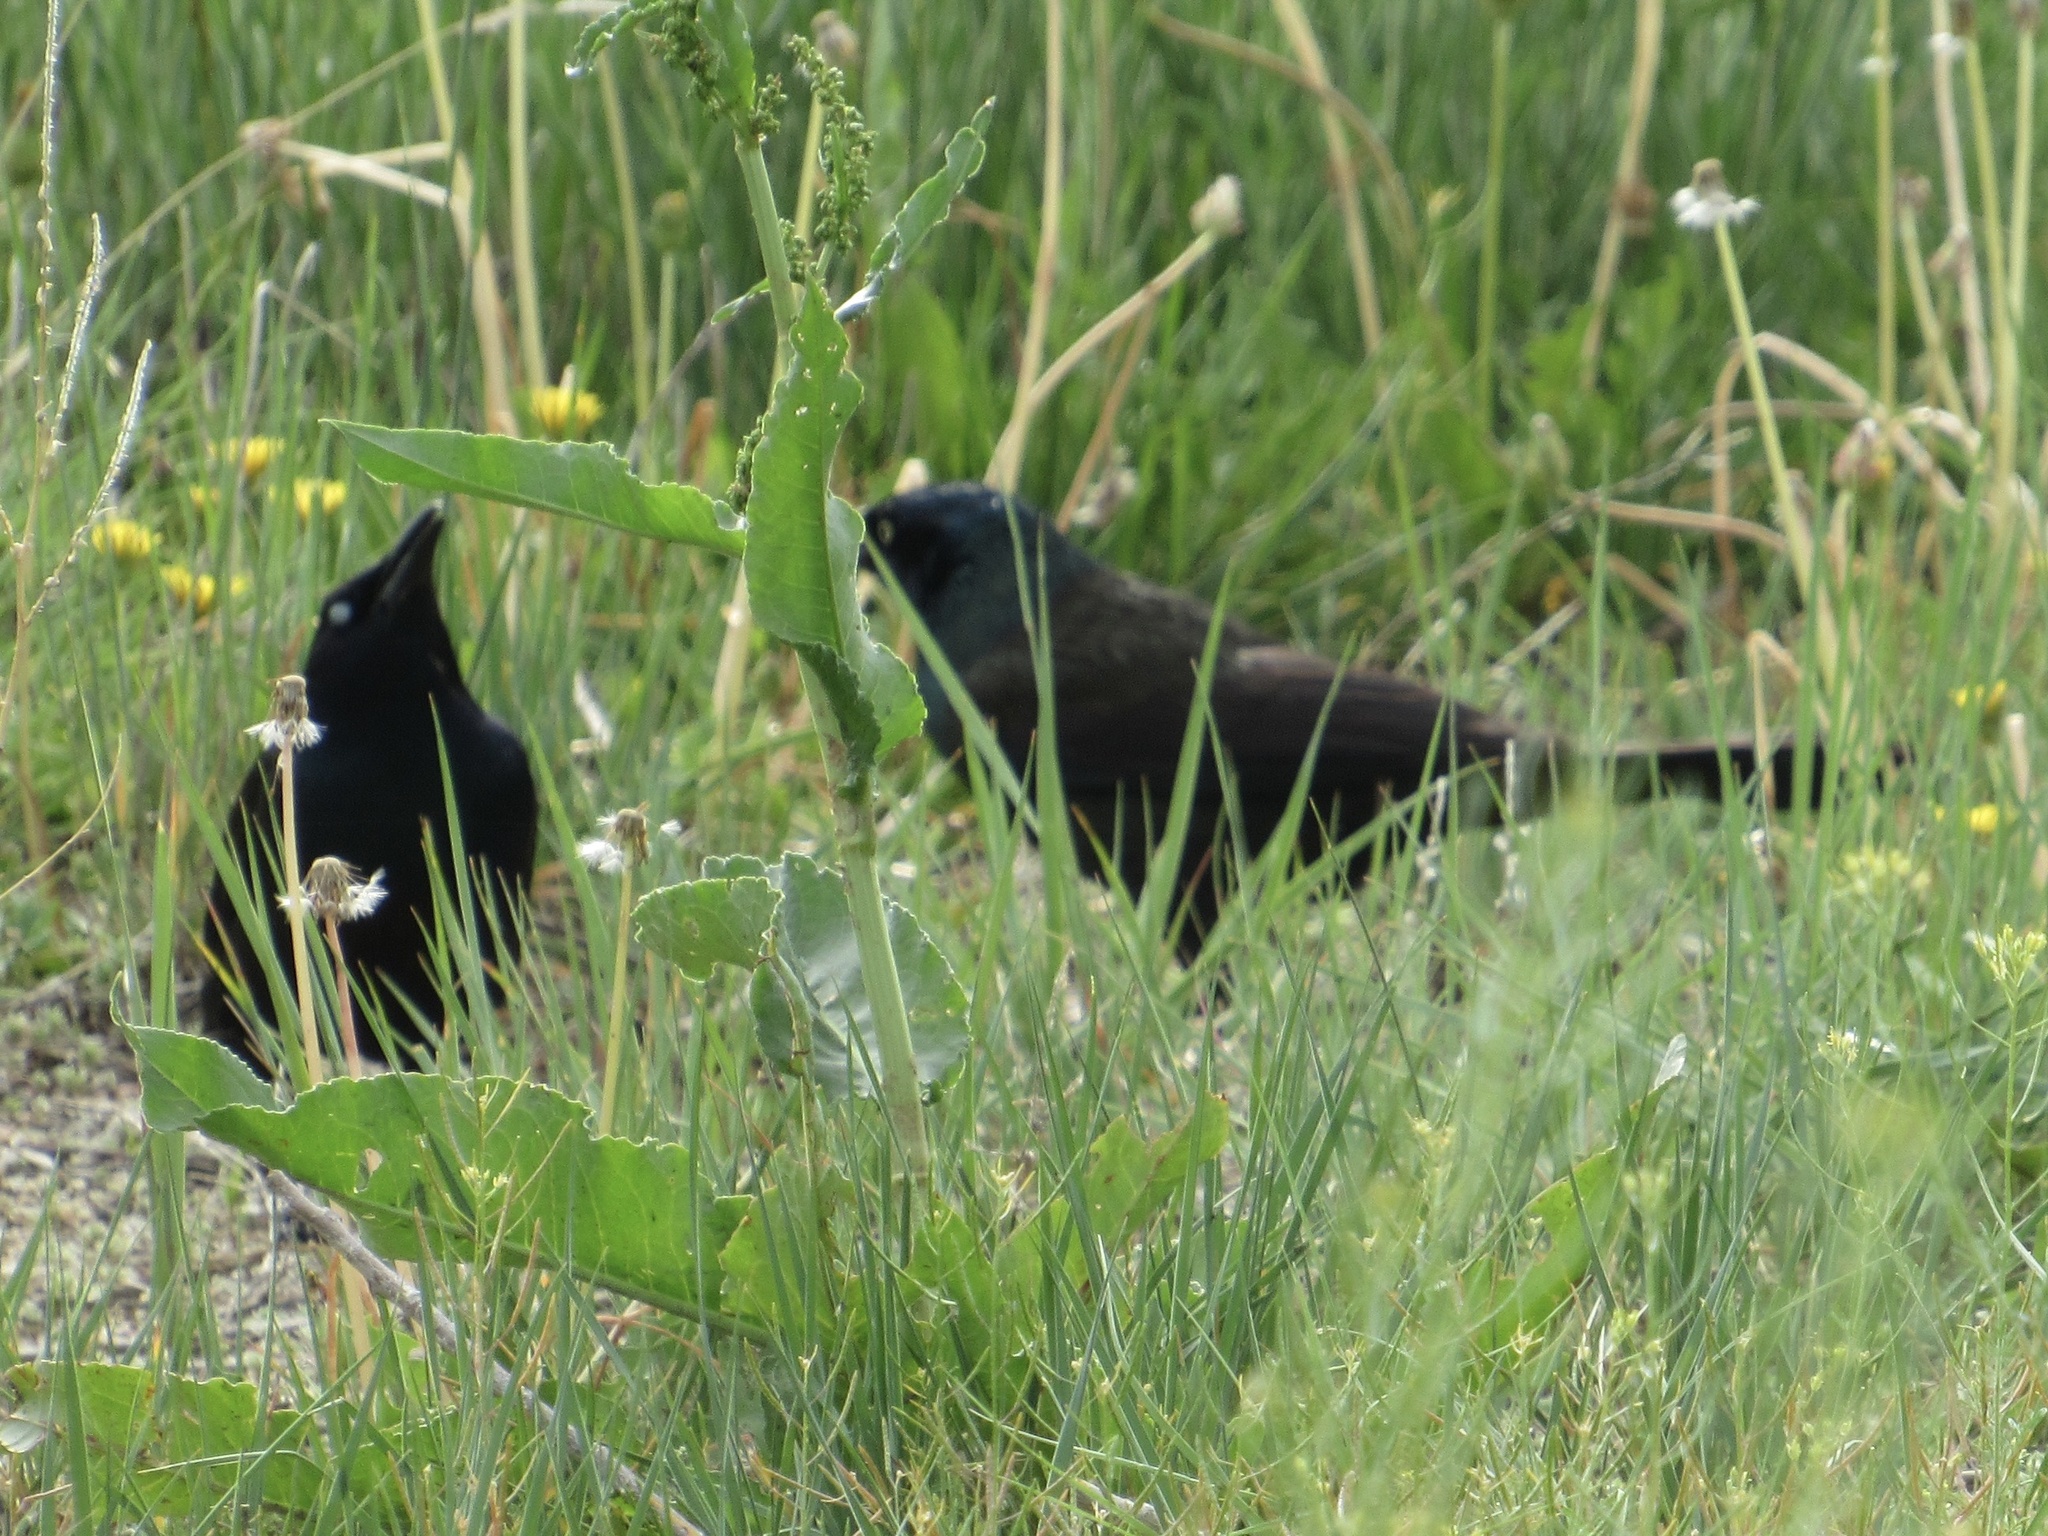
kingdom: Animalia
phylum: Chordata
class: Aves
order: Passeriformes
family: Icteridae
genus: Quiscalus
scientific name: Quiscalus quiscula
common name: Common grackle
